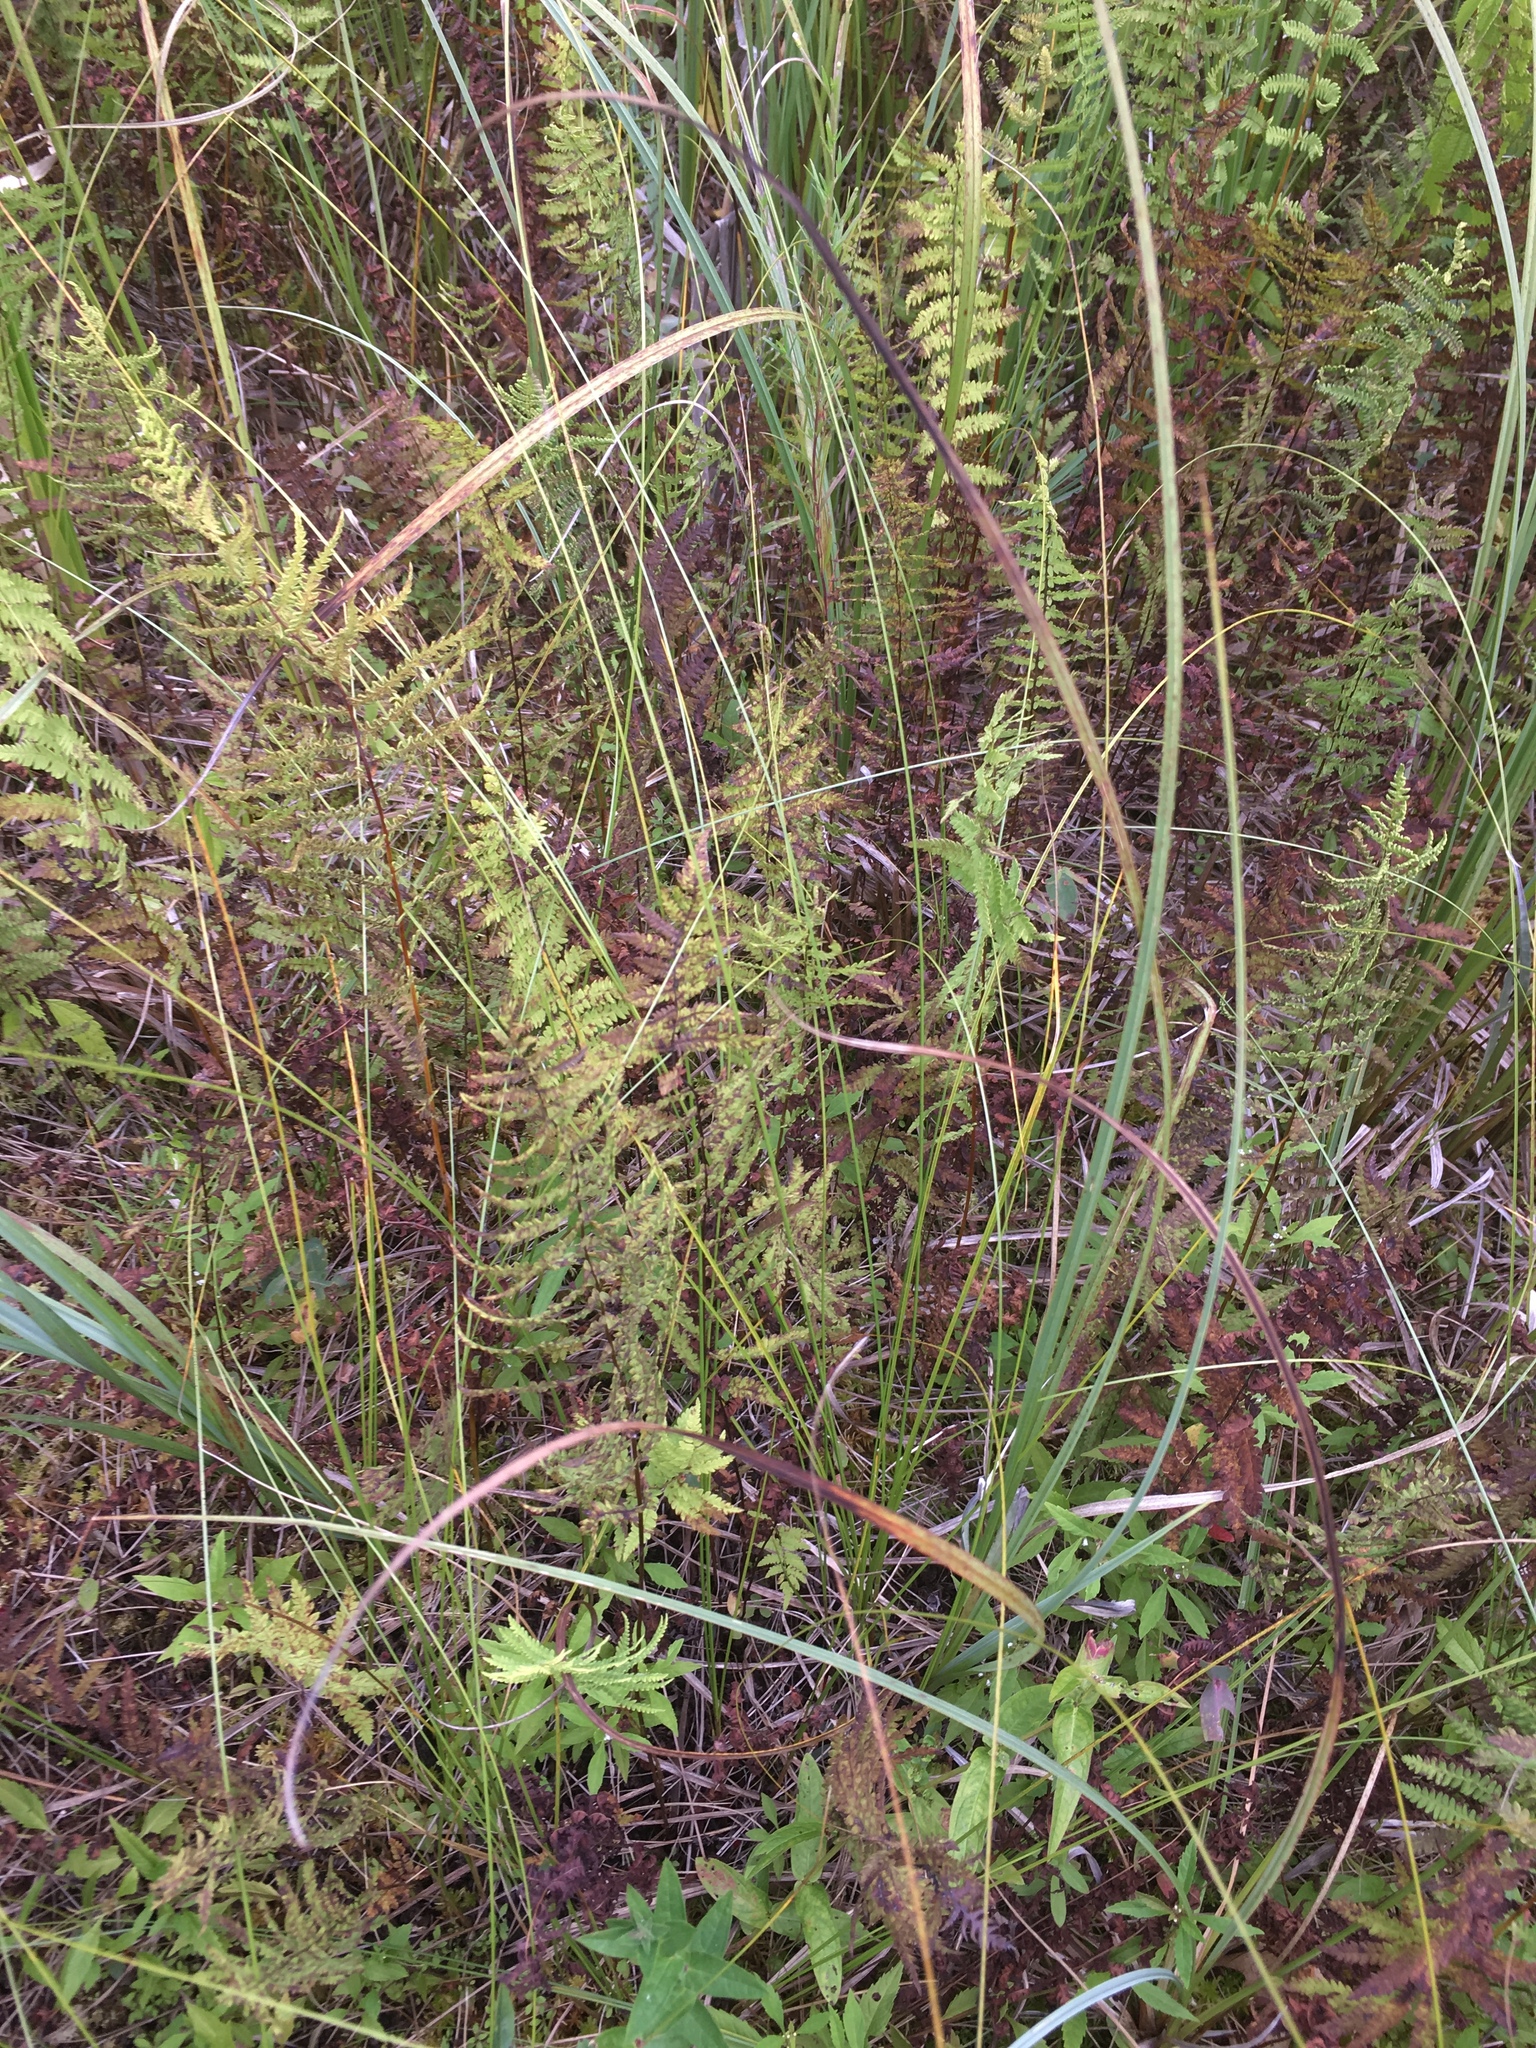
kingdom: Plantae
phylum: Tracheophyta
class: Liliopsida
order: Poales
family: Cyperaceae
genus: Carex
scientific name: Carex lasiocarpa
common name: Slender sedge
